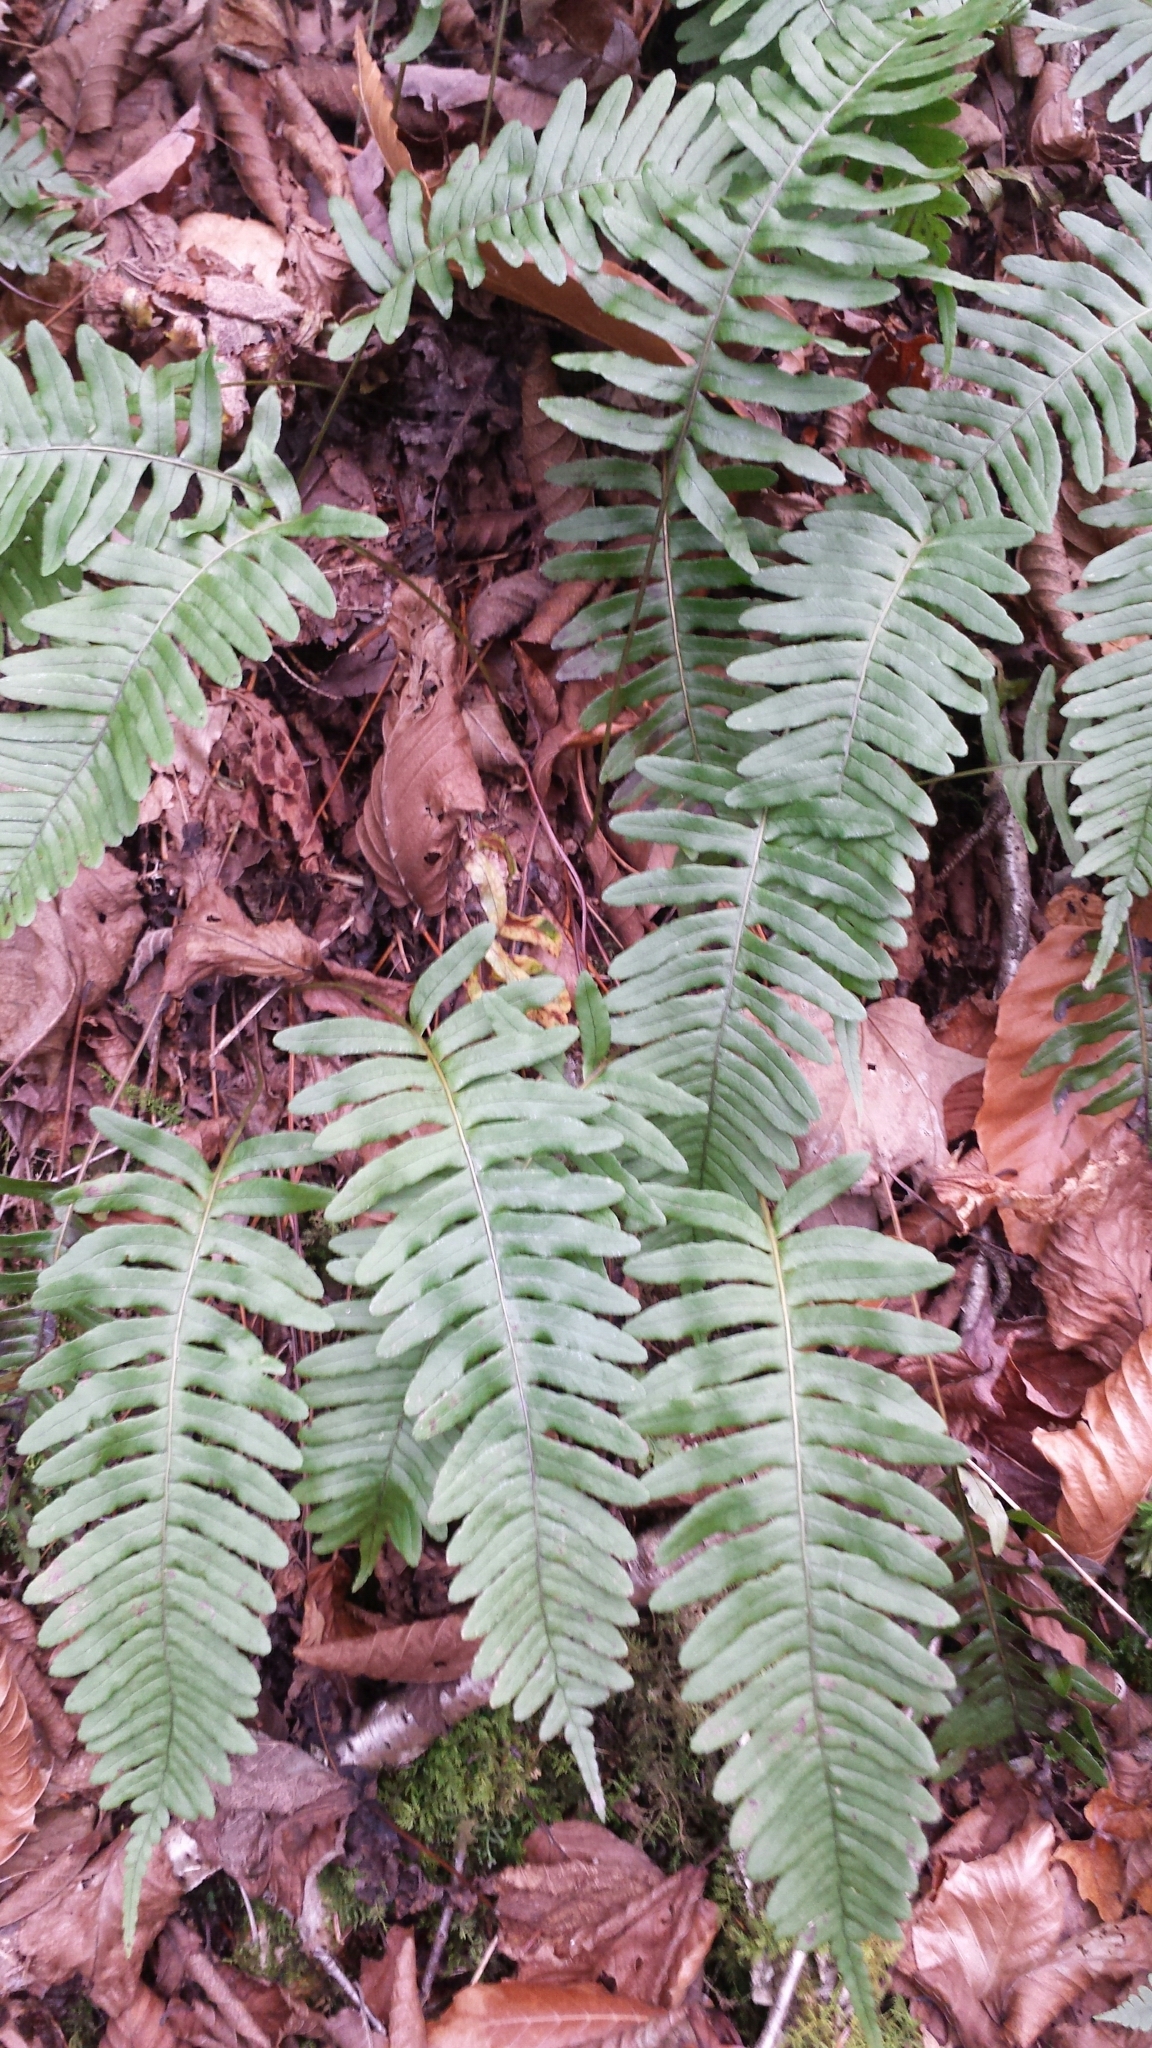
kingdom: Plantae
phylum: Tracheophyta
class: Polypodiopsida
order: Polypodiales
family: Polypodiaceae
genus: Polypodium
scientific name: Polypodium appalachianum
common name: Appalachian polypody
